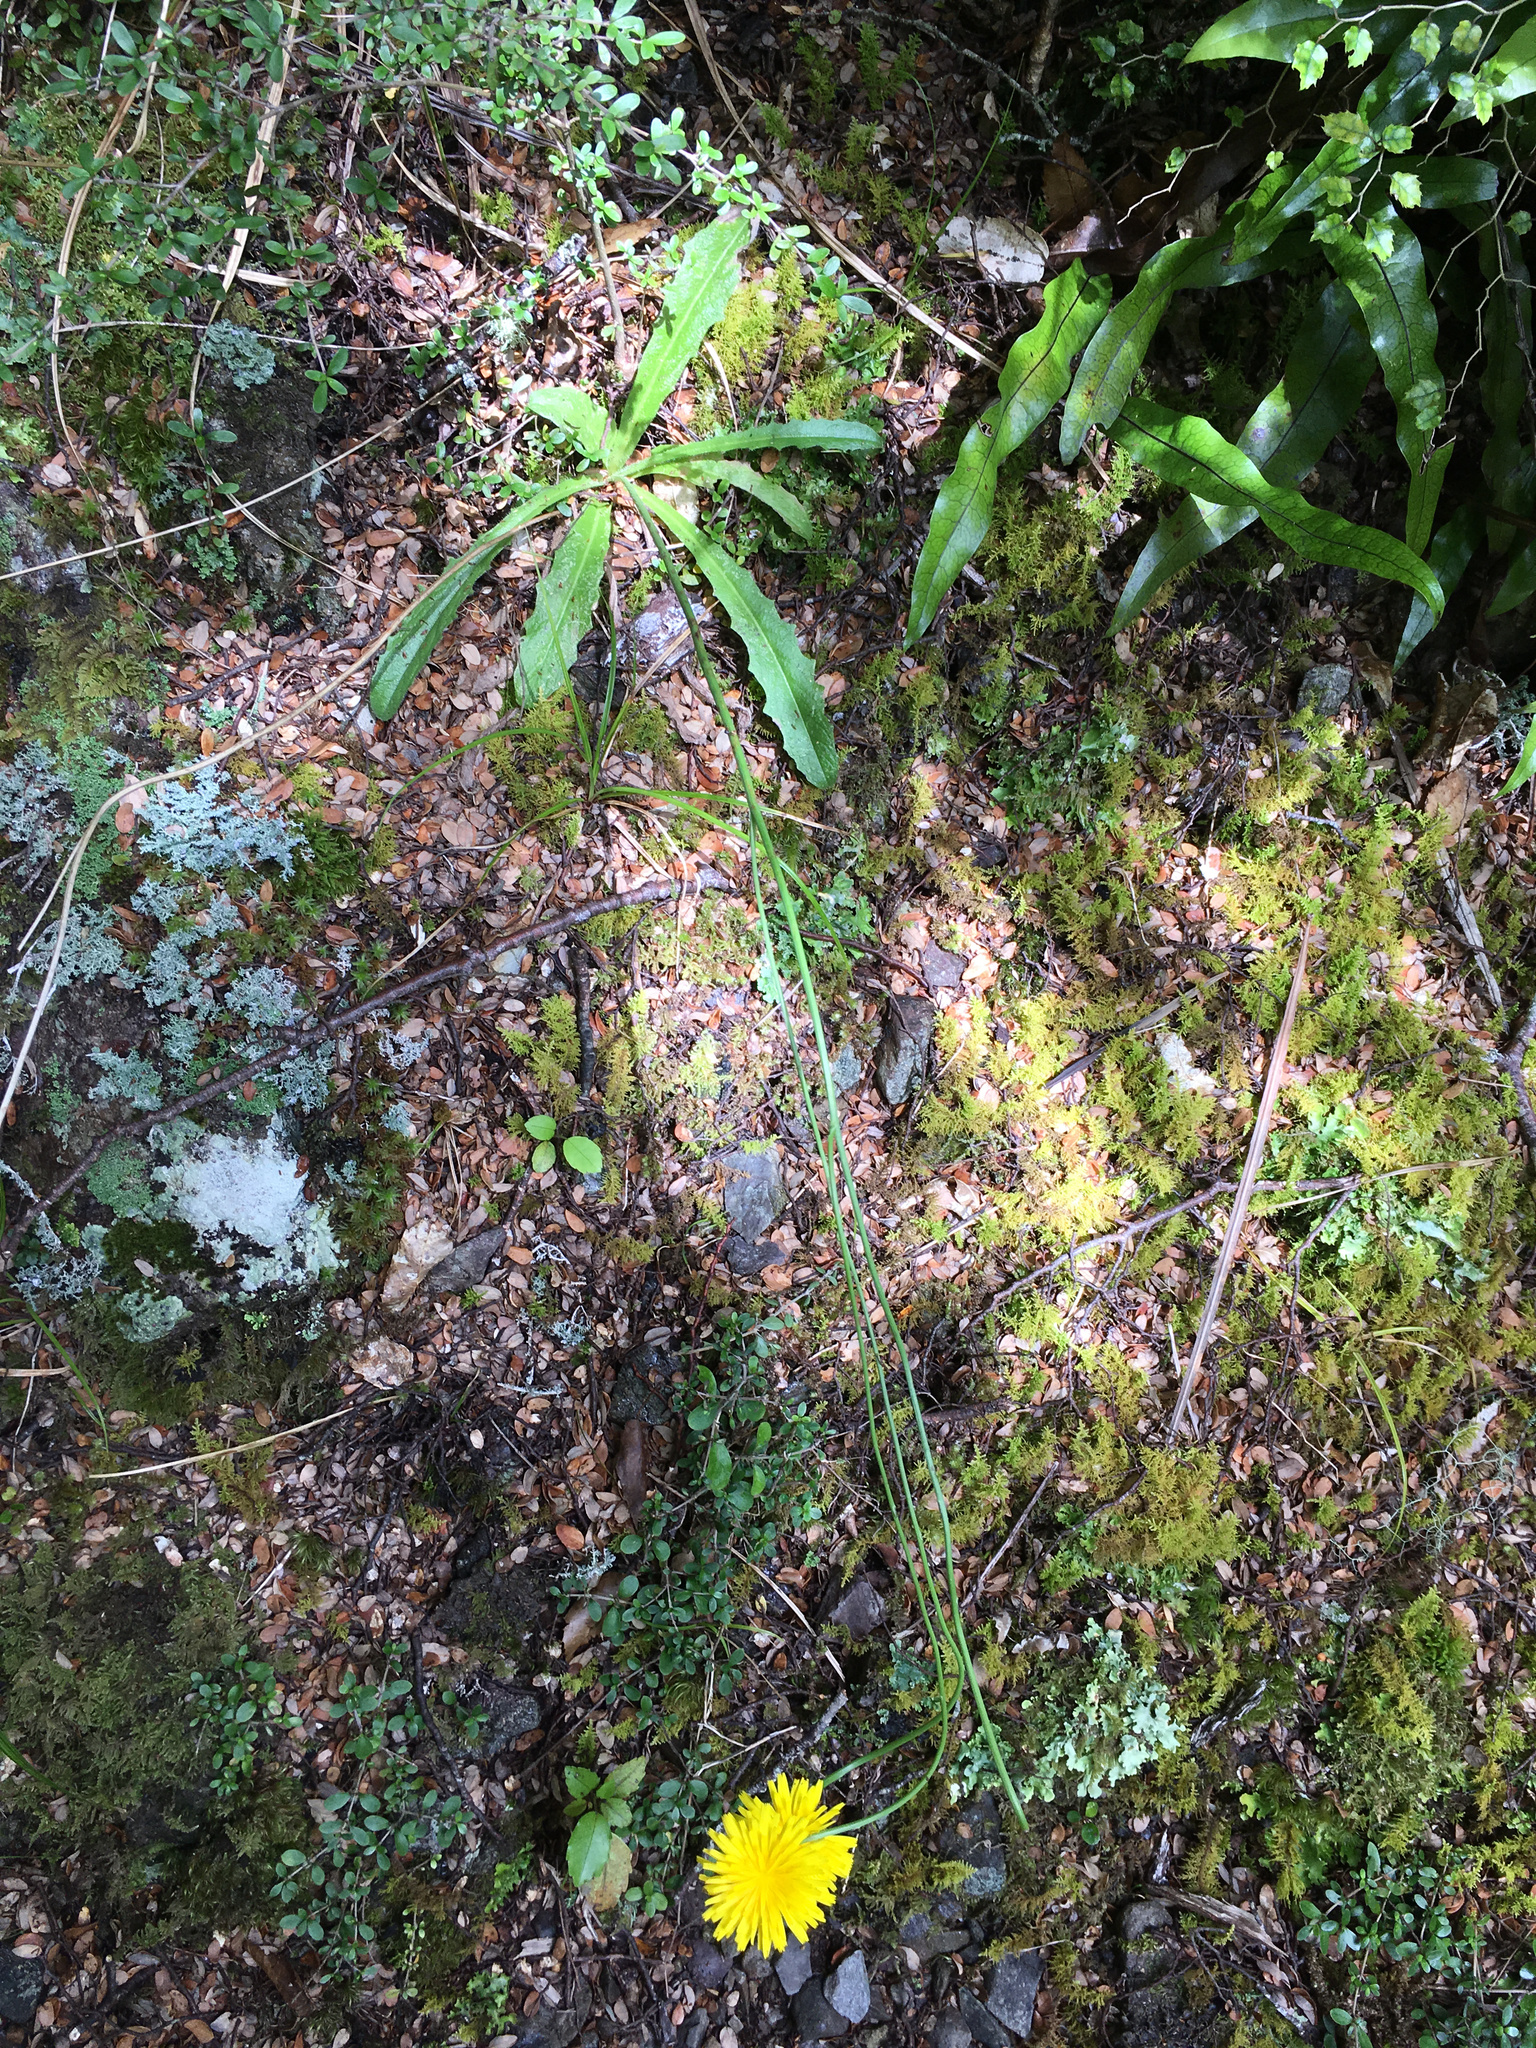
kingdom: Plantae
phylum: Tracheophyta
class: Magnoliopsida
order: Asterales
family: Asteraceae
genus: Hypochaeris
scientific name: Hypochaeris radicata
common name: Flatweed
